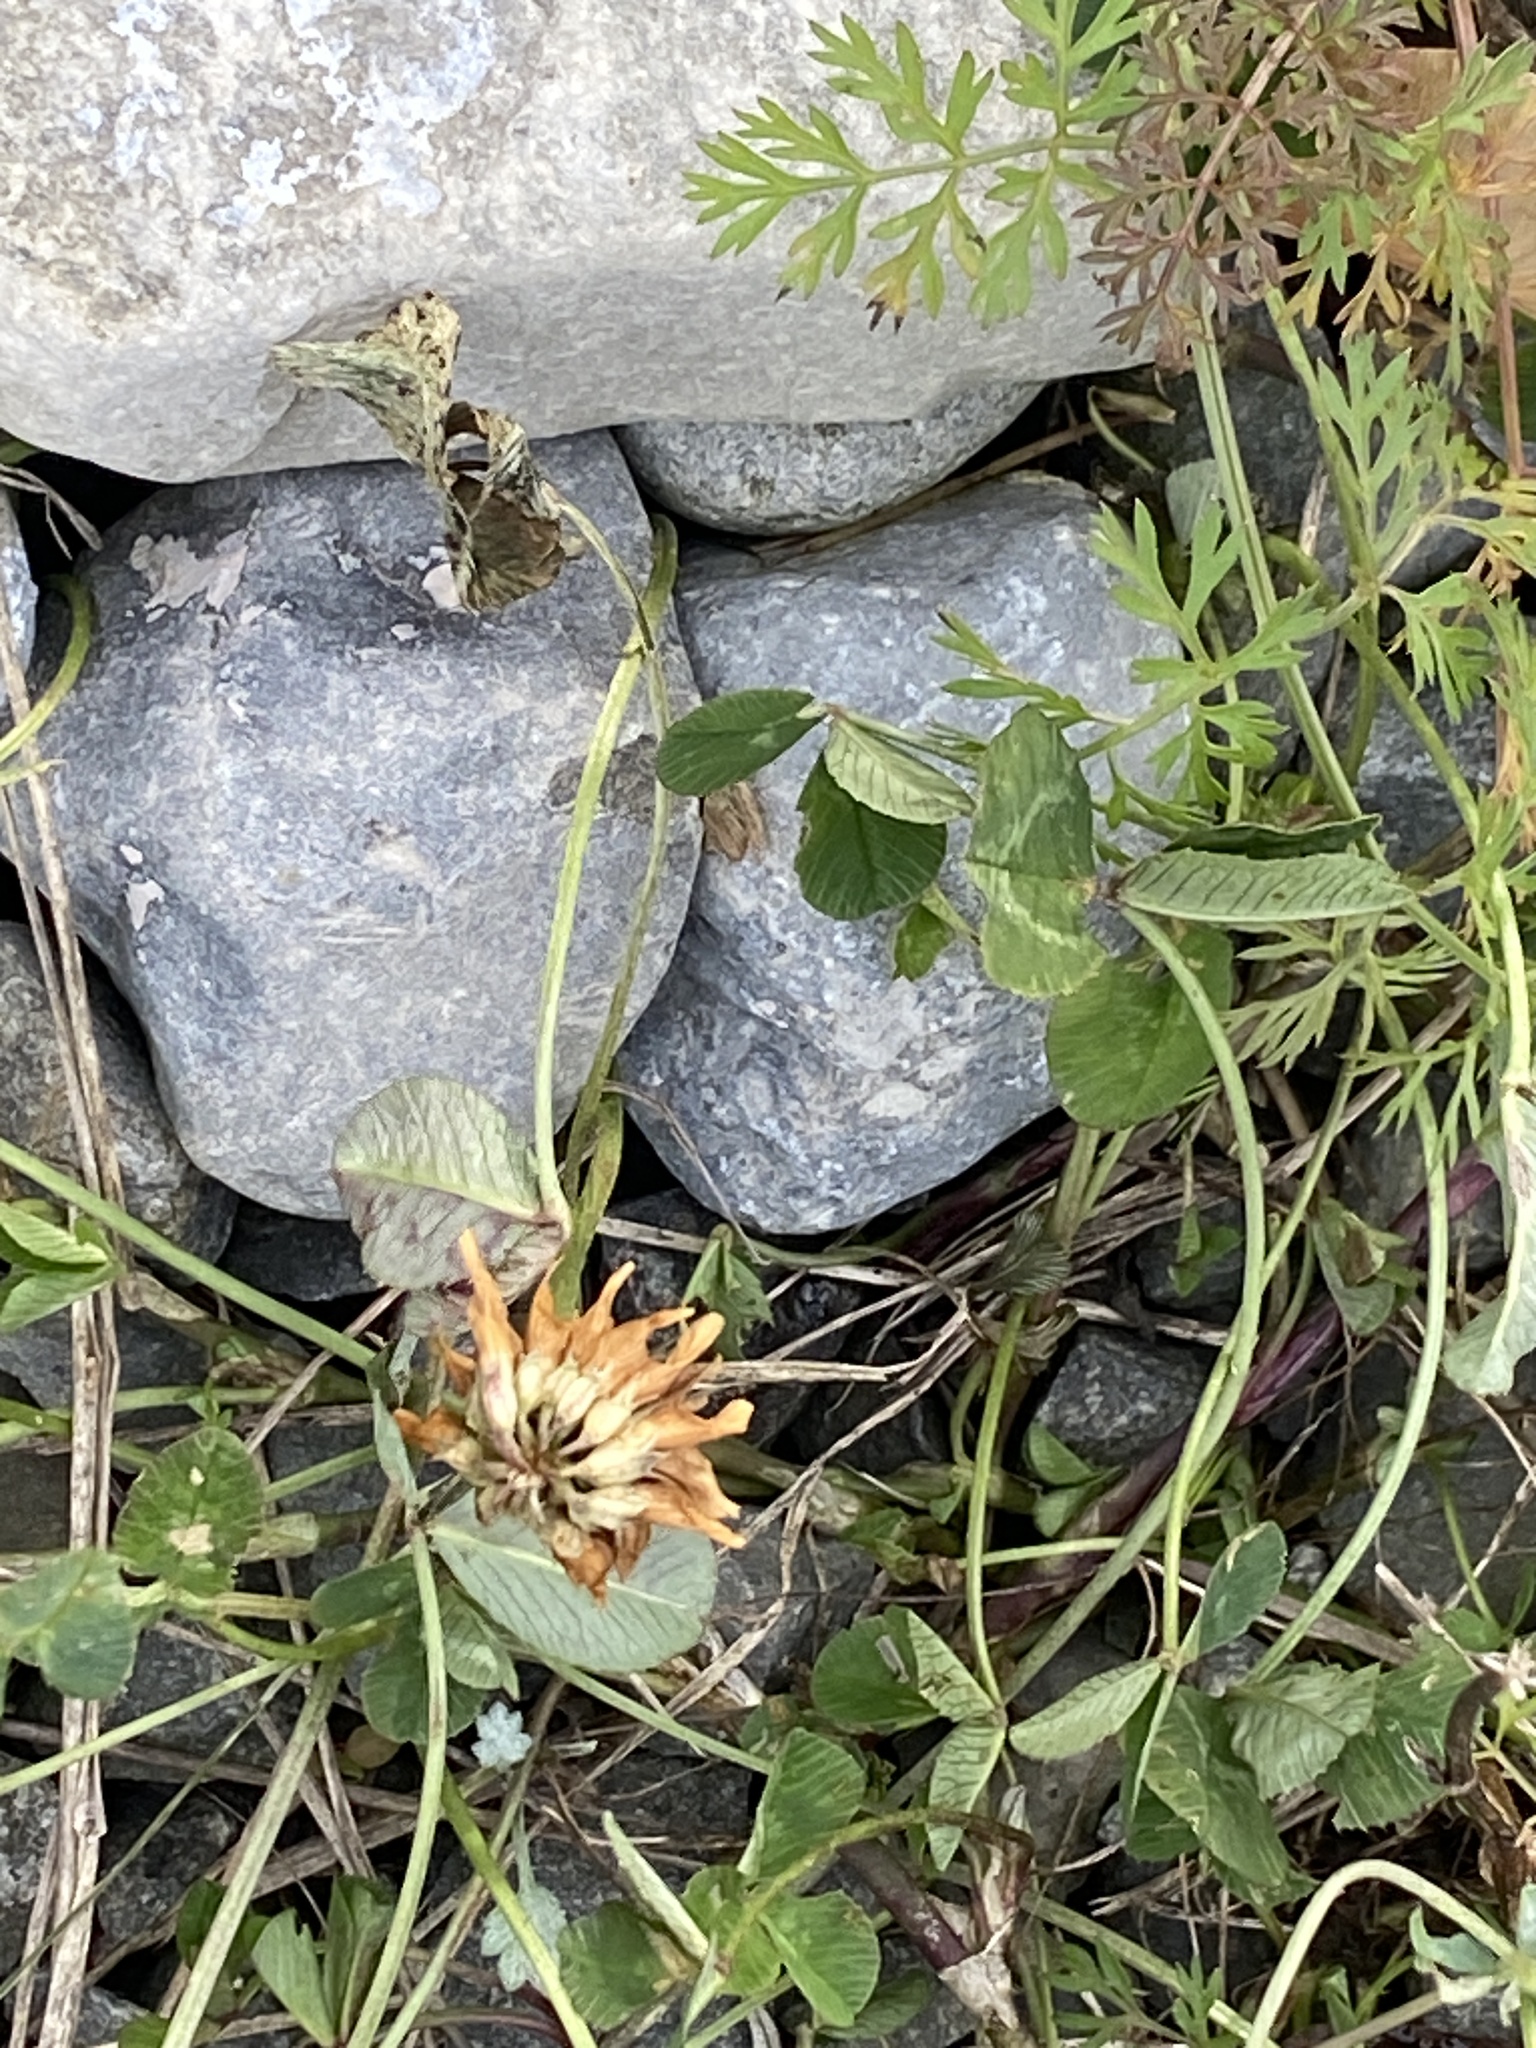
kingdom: Plantae
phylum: Tracheophyta
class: Magnoliopsida
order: Fabales
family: Fabaceae
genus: Trifolium
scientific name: Trifolium repens
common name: White clover
